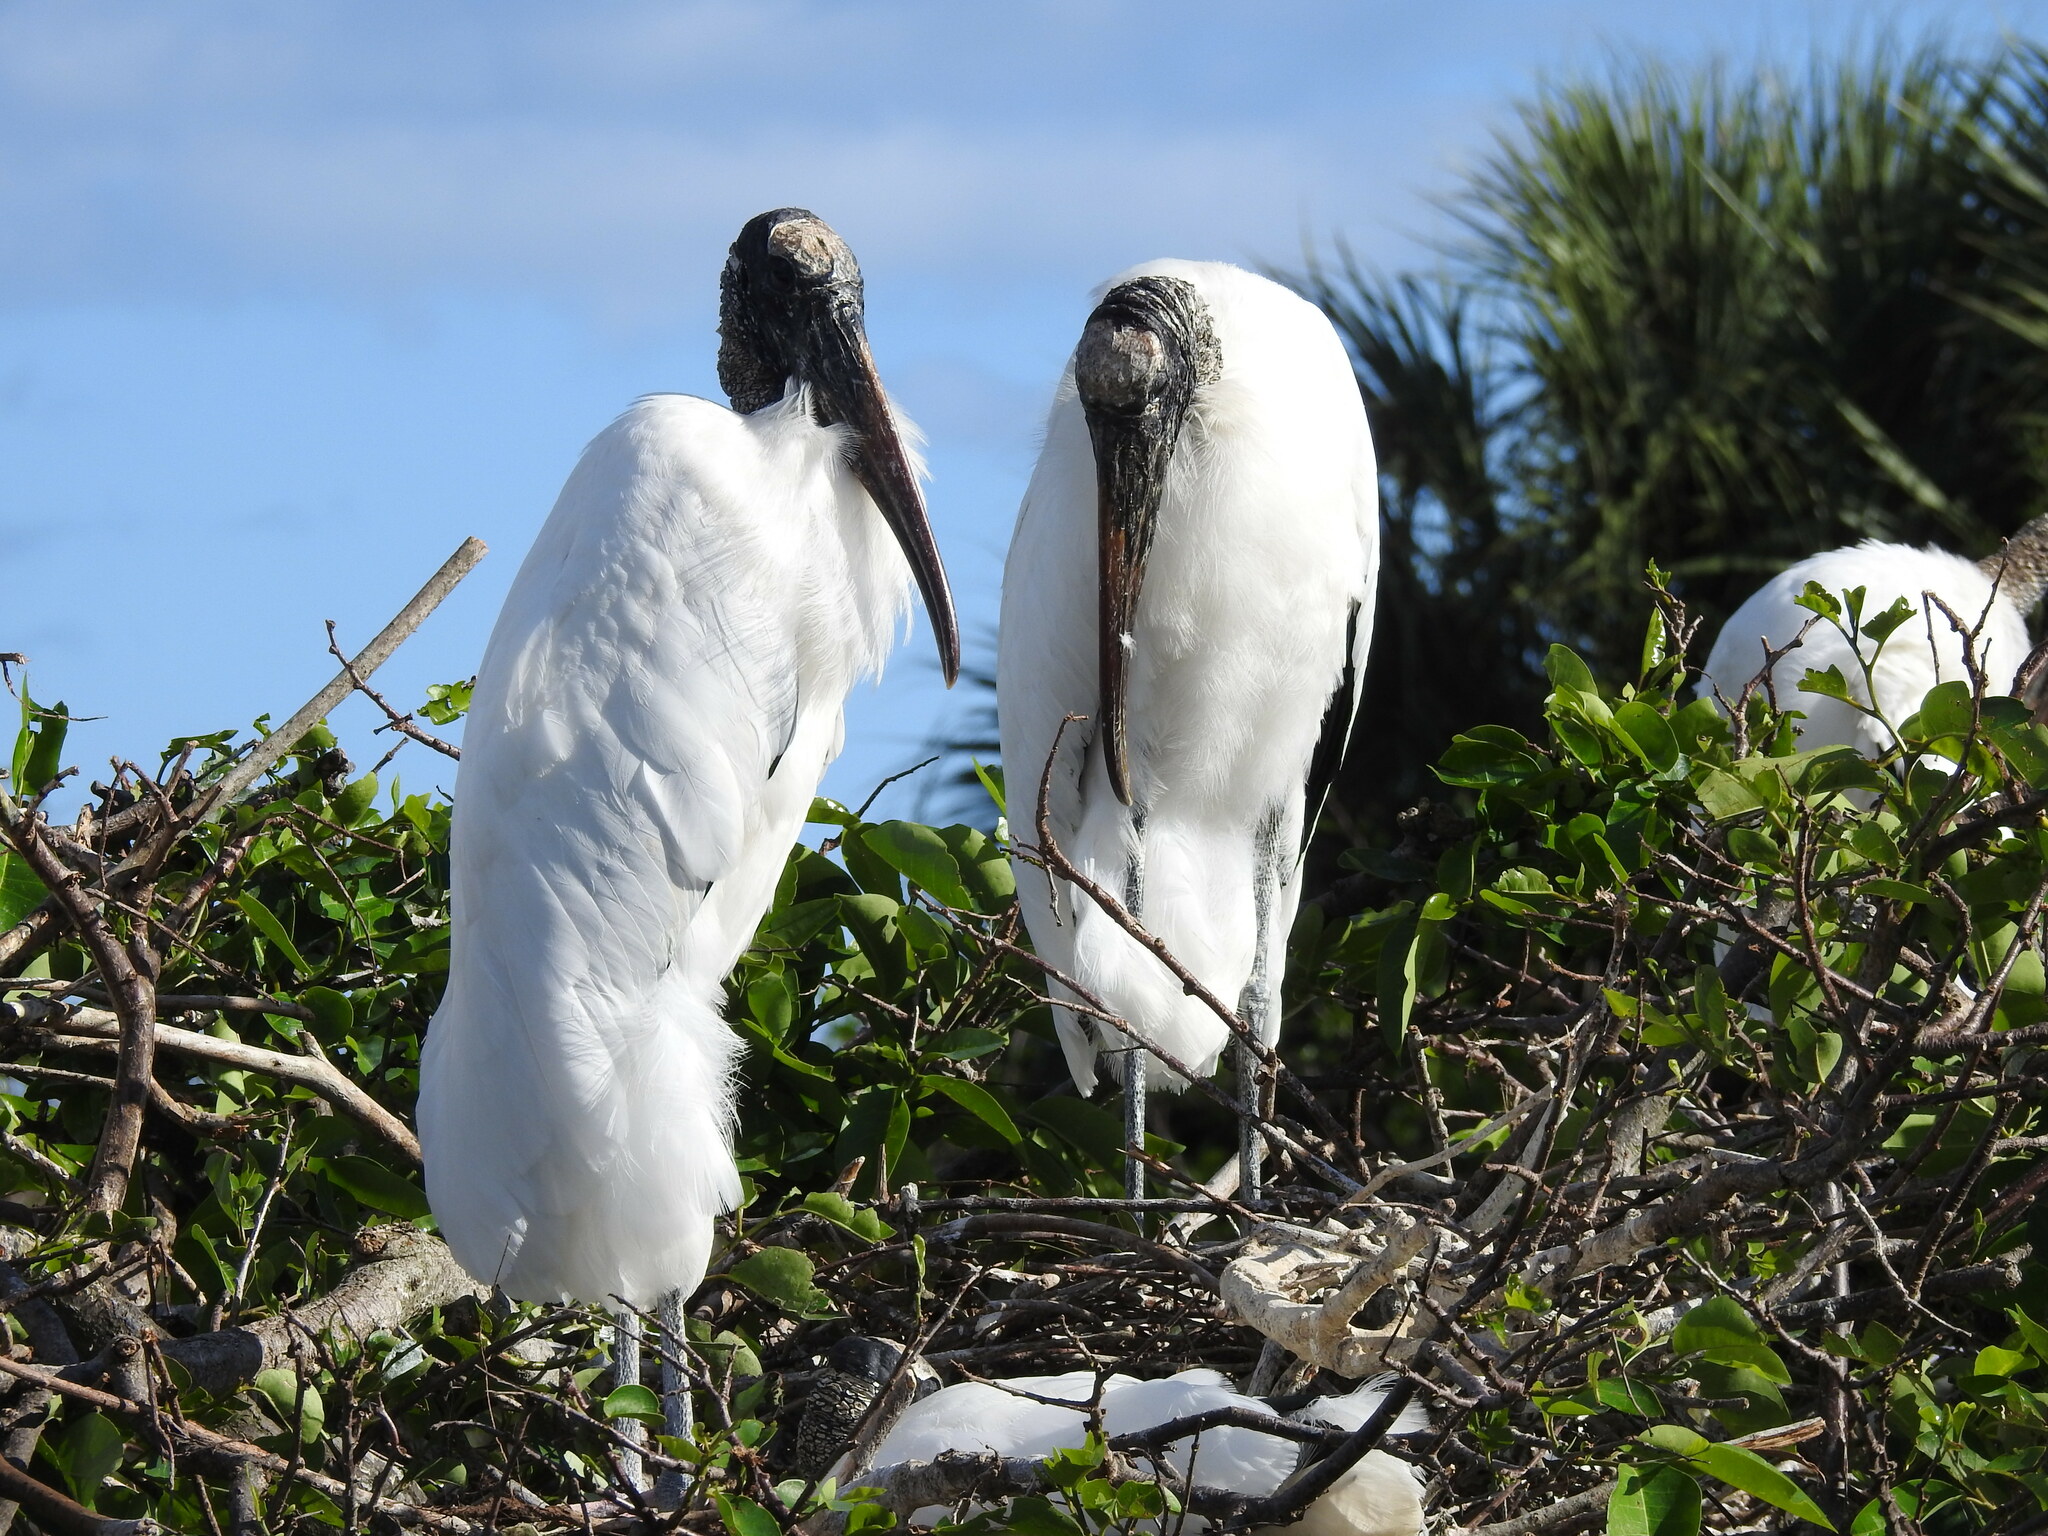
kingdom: Animalia
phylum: Chordata
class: Aves
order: Ciconiiformes
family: Ciconiidae
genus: Mycteria
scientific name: Mycteria americana
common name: Wood stork
